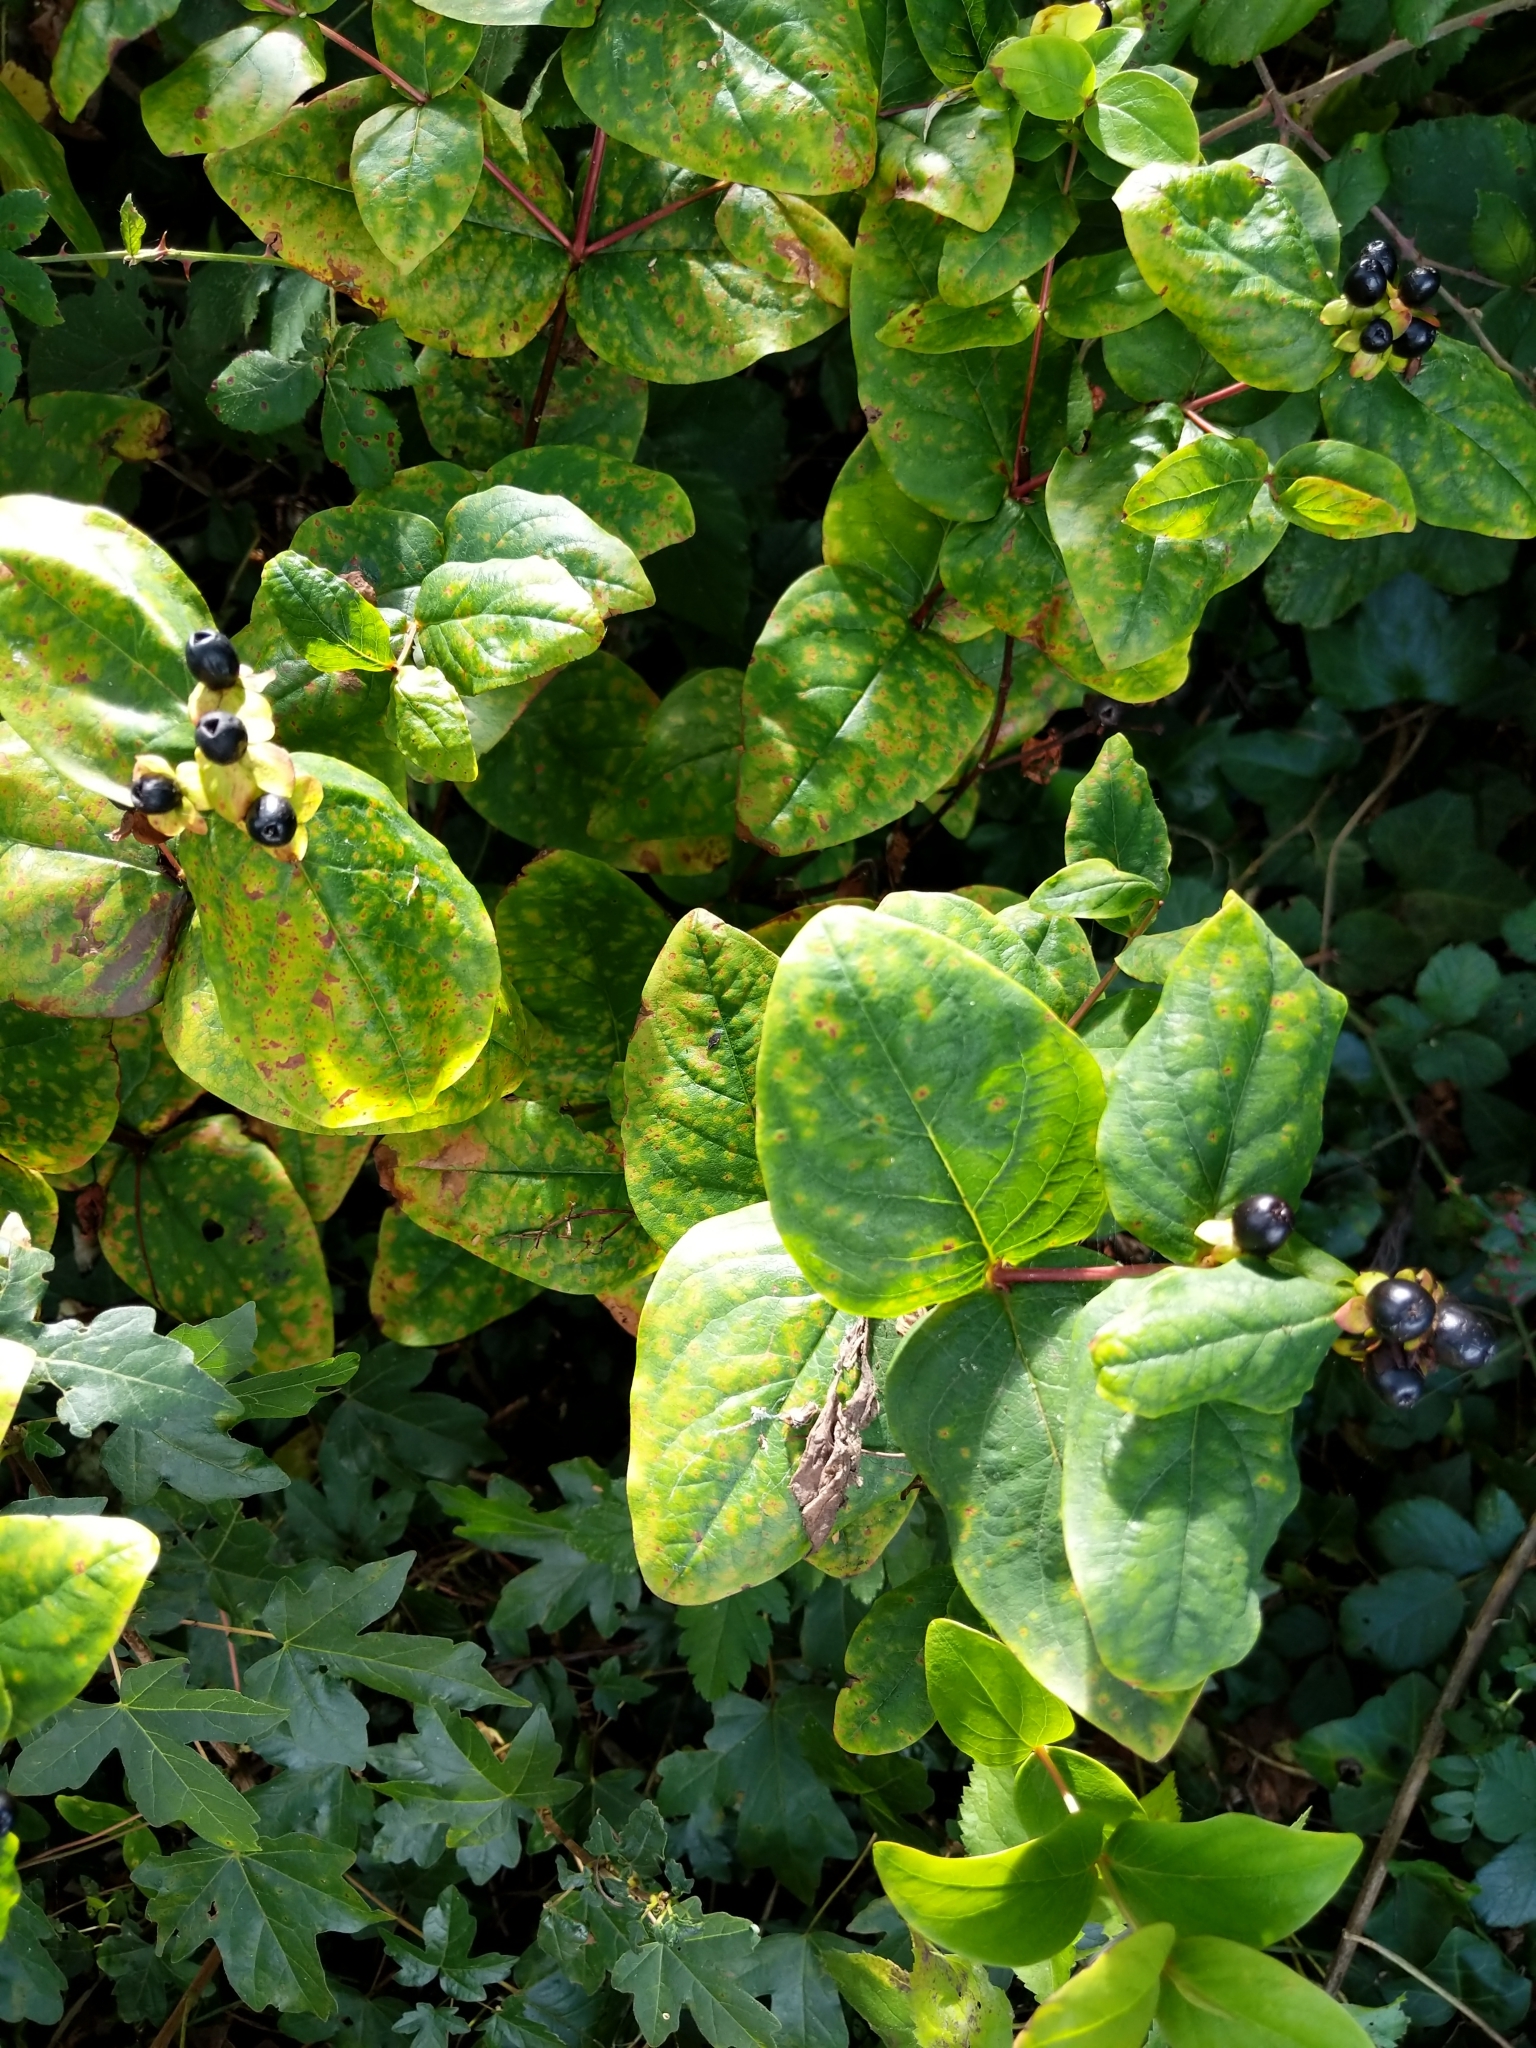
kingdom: Plantae
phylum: Tracheophyta
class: Magnoliopsida
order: Malpighiales
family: Hypericaceae
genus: Hypericum
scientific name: Hypericum androsaemum
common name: Sweet-amber
